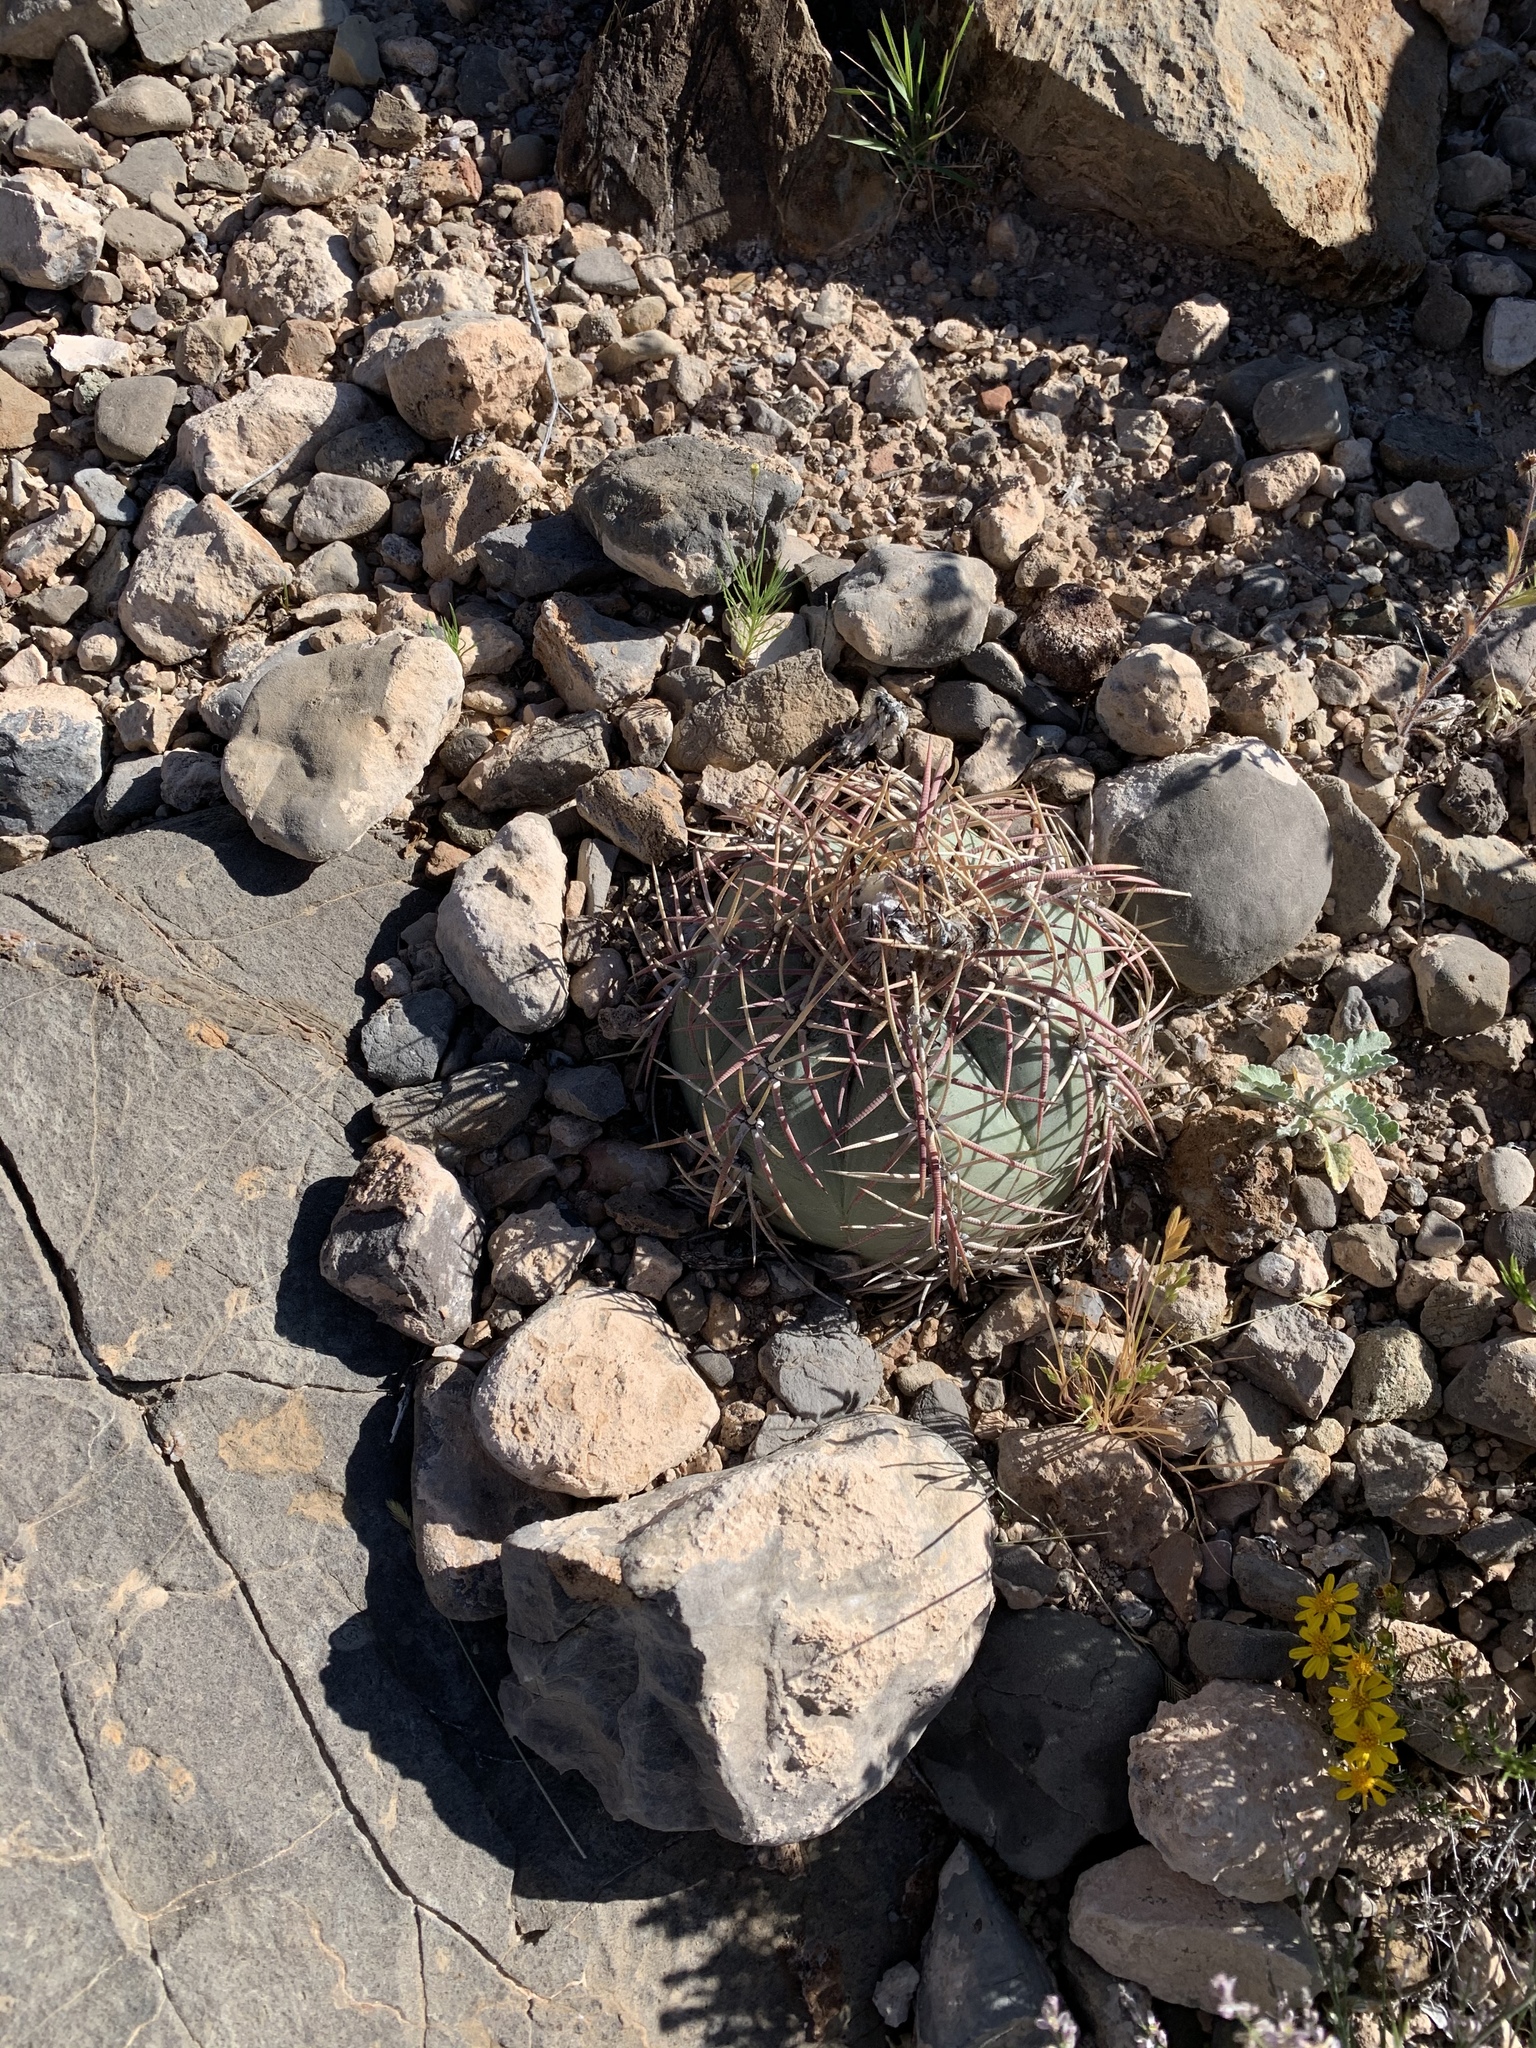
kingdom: Plantae
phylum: Tracheophyta
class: Magnoliopsida
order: Caryophyllales
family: Cactaceae
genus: Echinocactus
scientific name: Echinocactus horizonthalonius
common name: Devilshead
